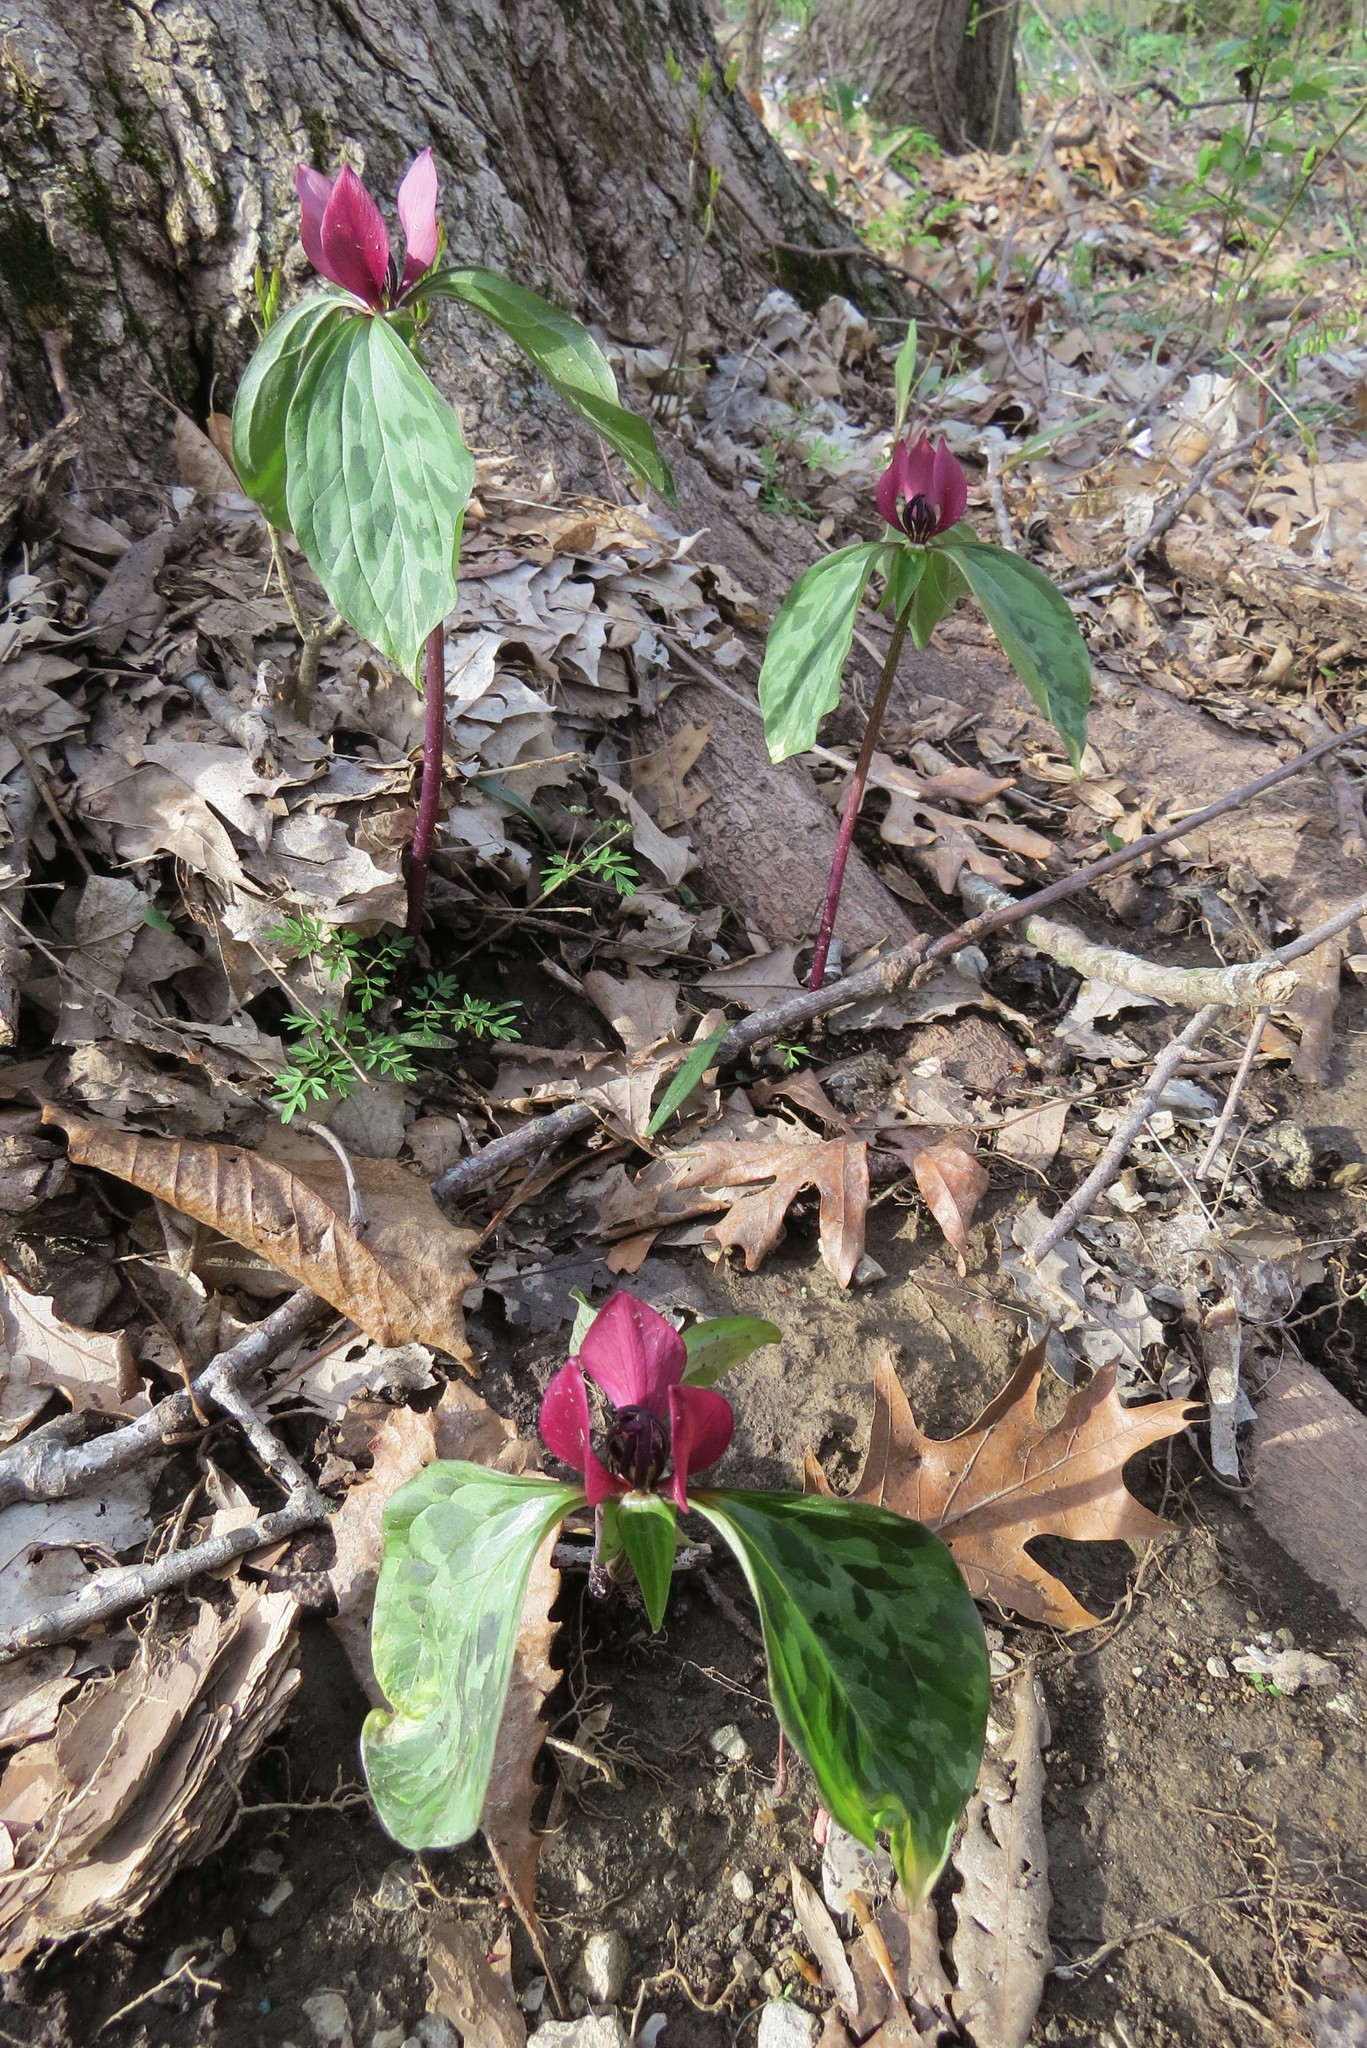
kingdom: Plantae
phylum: Tracheophyta
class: Liliopsida
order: Liliales
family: Melanthiaceae
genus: Trillium
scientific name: Trillium recurvatum
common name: Bloody butcher
